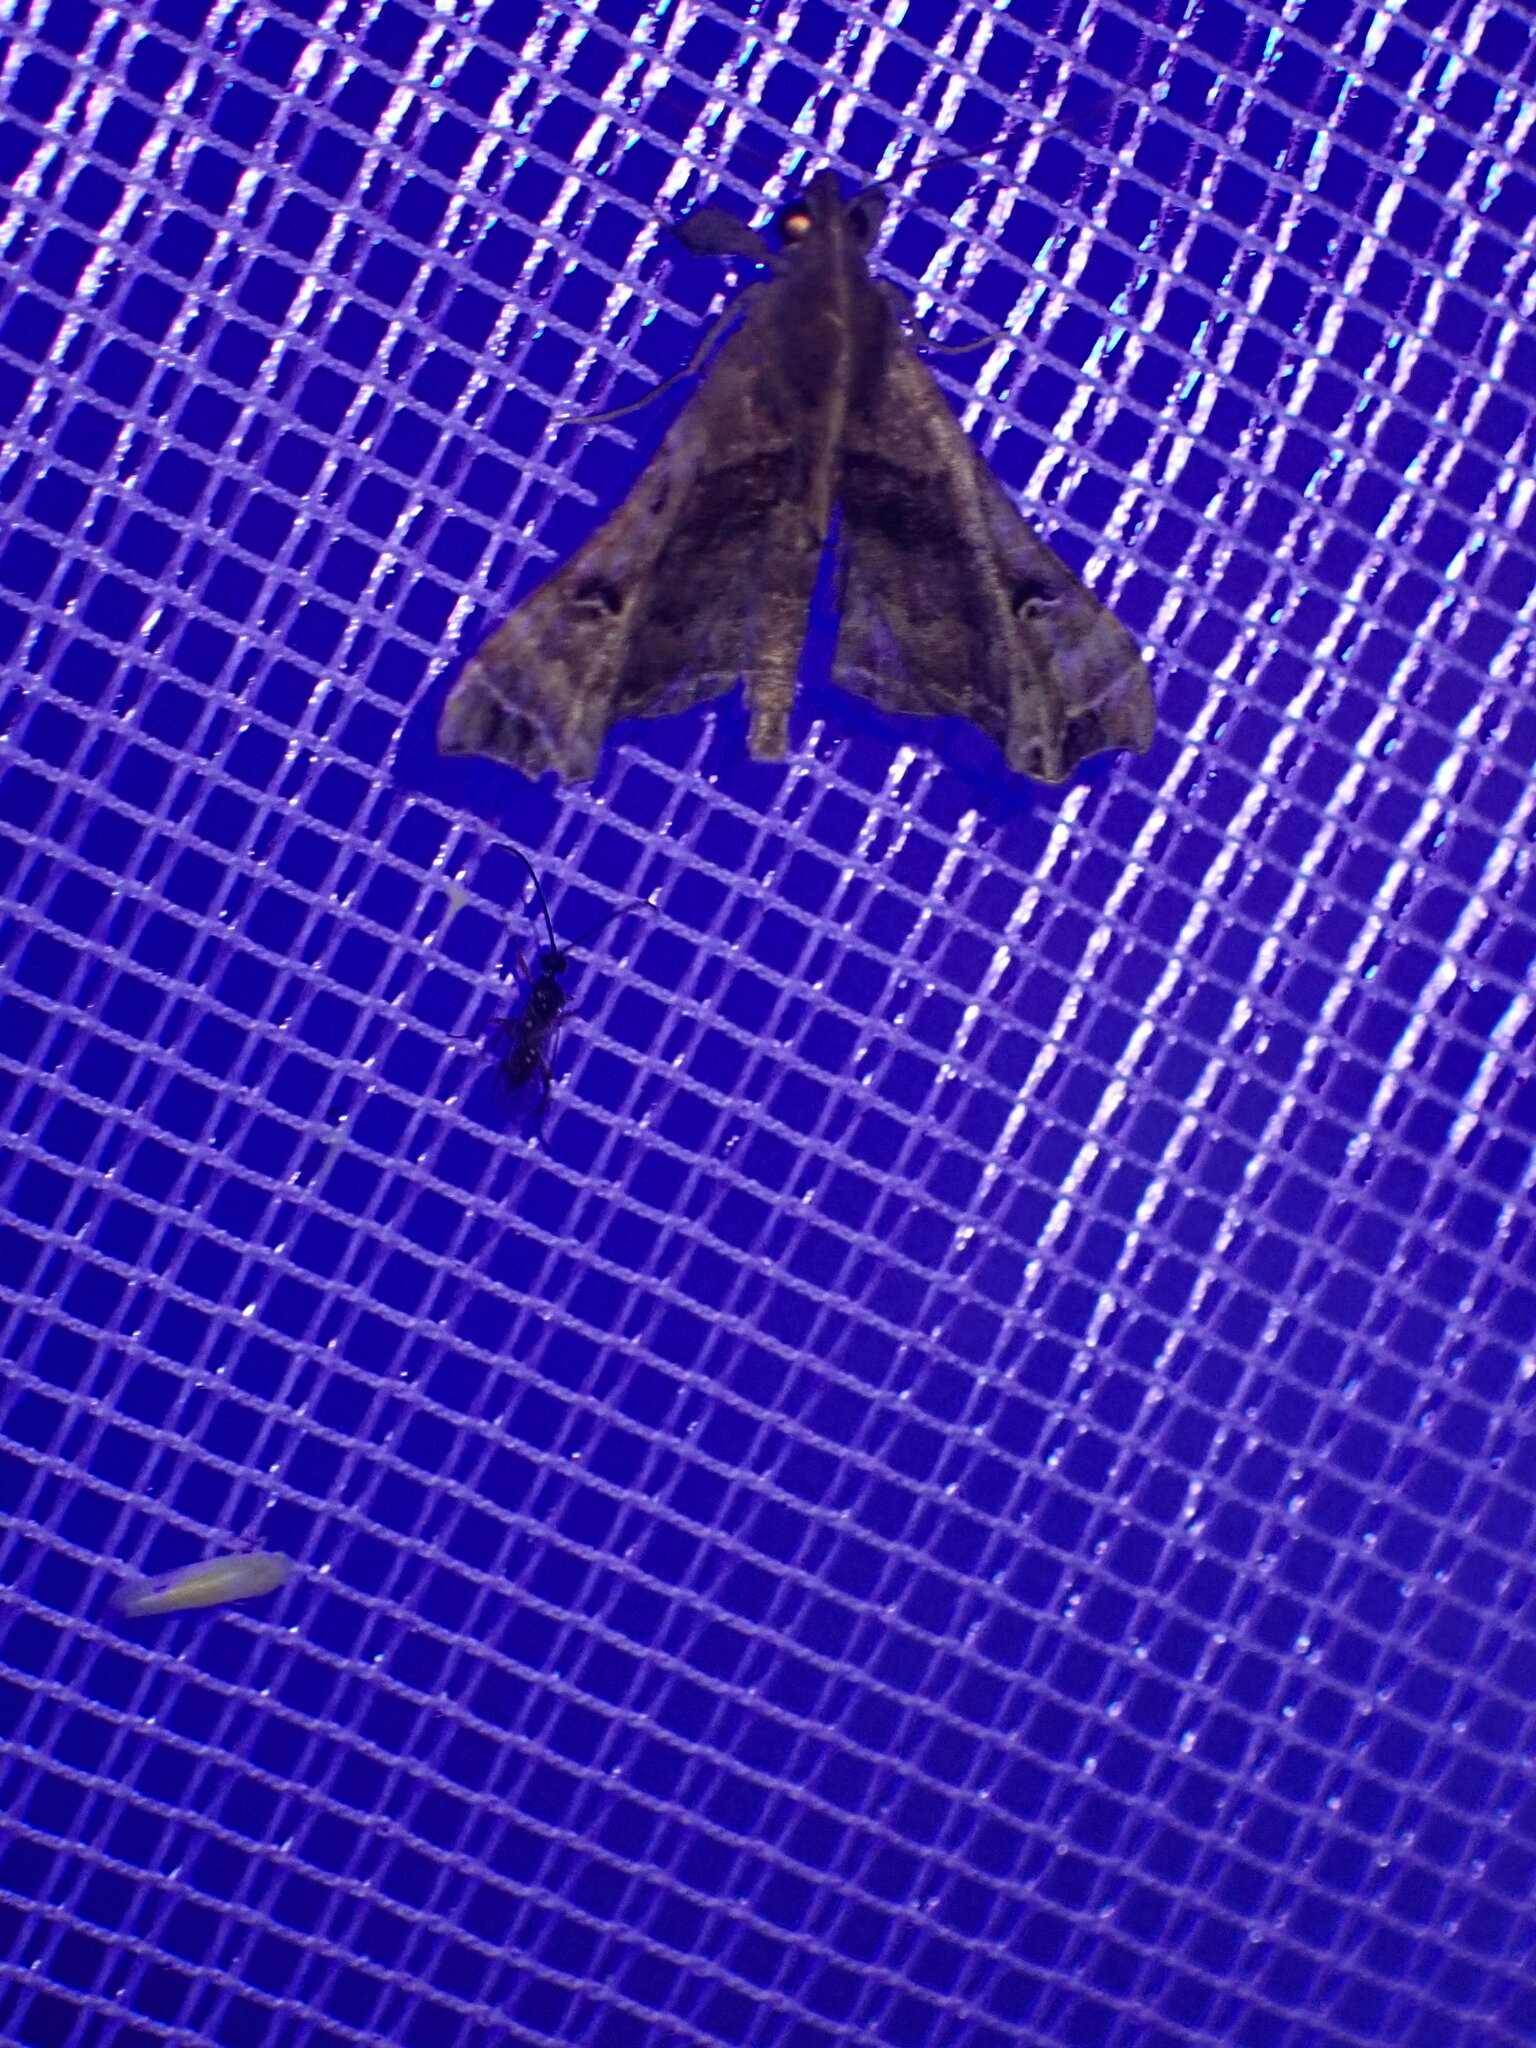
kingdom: Animalia
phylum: Arthropoda
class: Insecta
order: Lepidoptera
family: Erebidae
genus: Palthis
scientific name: Palthis asopialis
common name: Faint-spotted palthis moth
